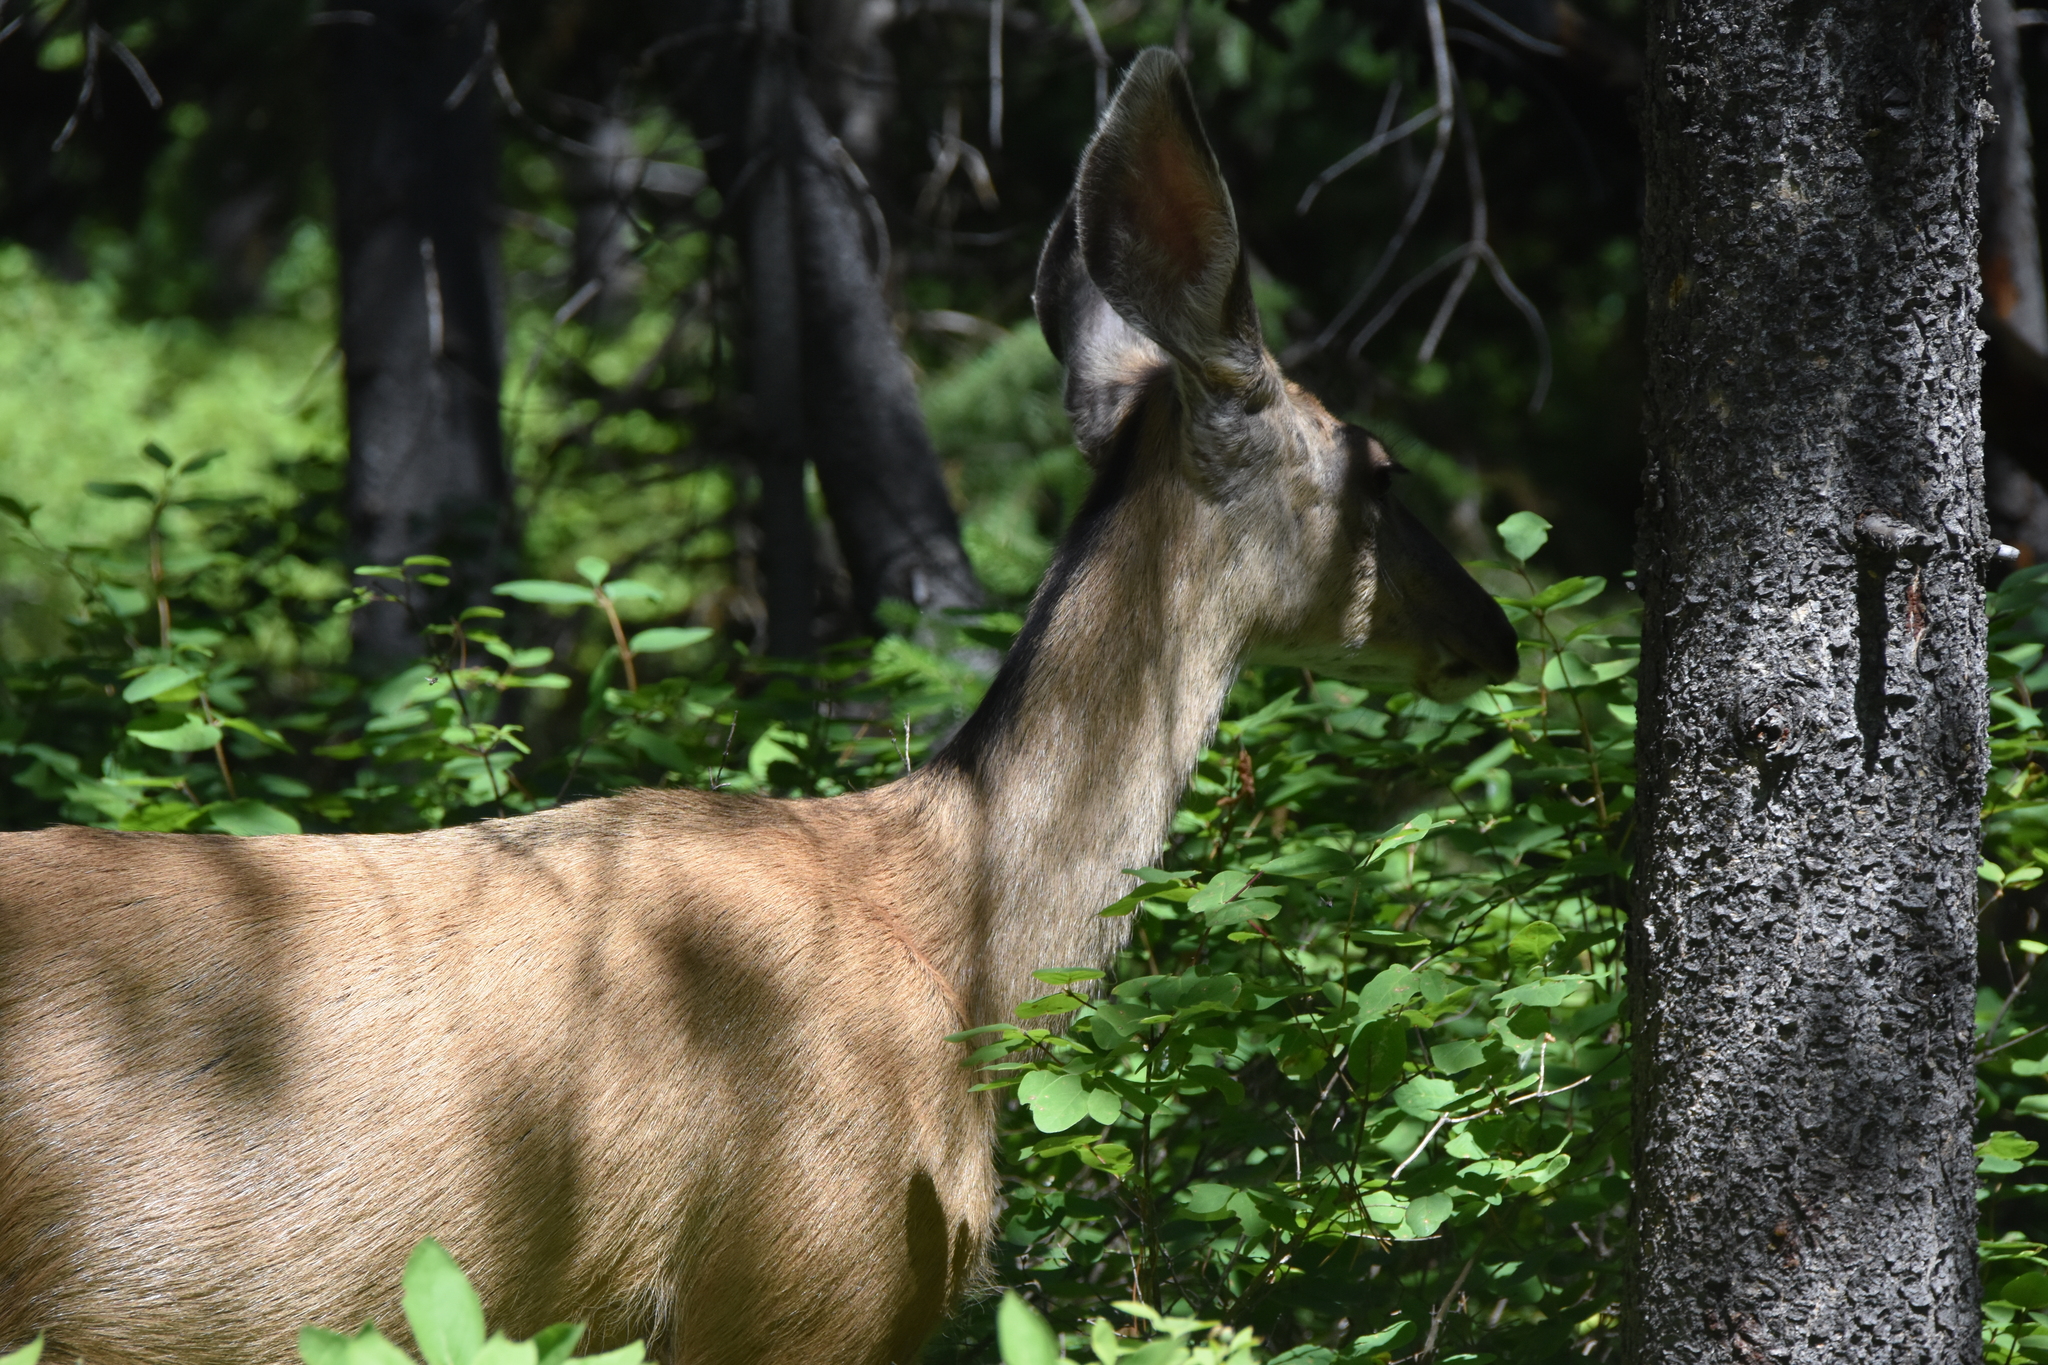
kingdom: Animalia
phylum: Chordata
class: Mammalia
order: Artiodactyla
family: Cervidae
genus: Odocoileus
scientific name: Odocoileus hemionus
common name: Mule deer
